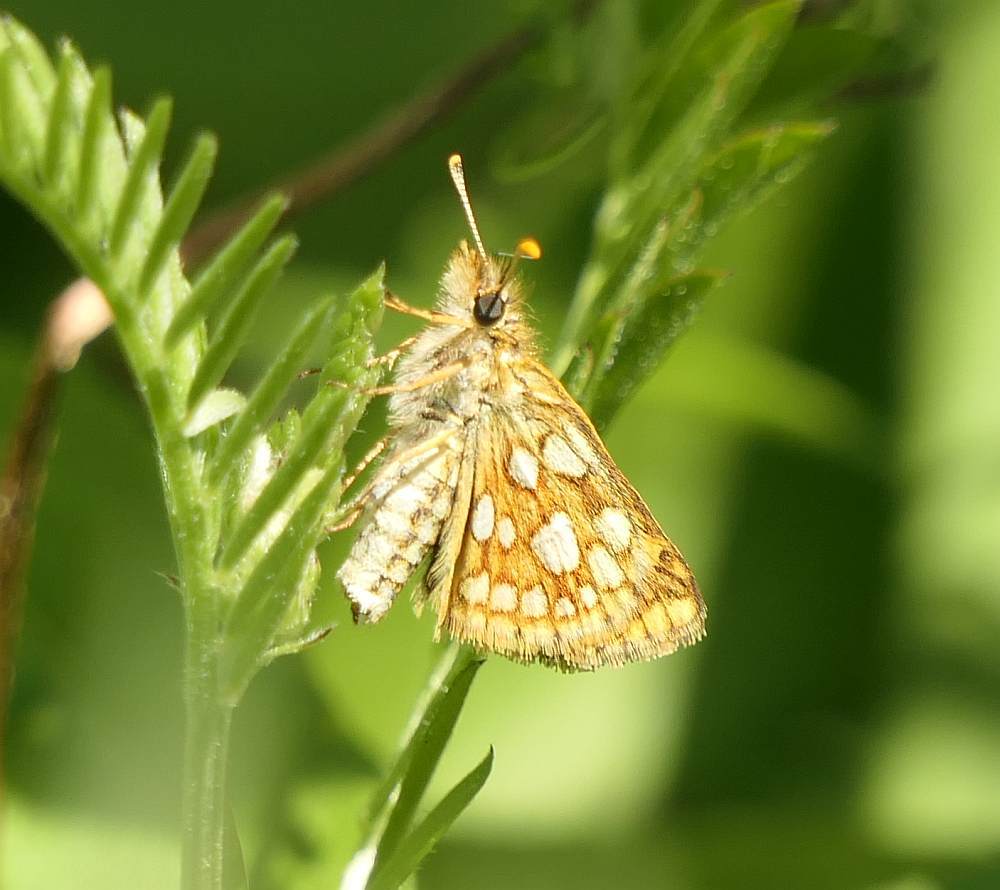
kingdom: Animalia
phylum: Arthropoda
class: Insecta
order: Lepidoptera
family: Hesperiidae
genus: Carterocephalus
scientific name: Carterocephalus mandan
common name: Arctic skipperling
